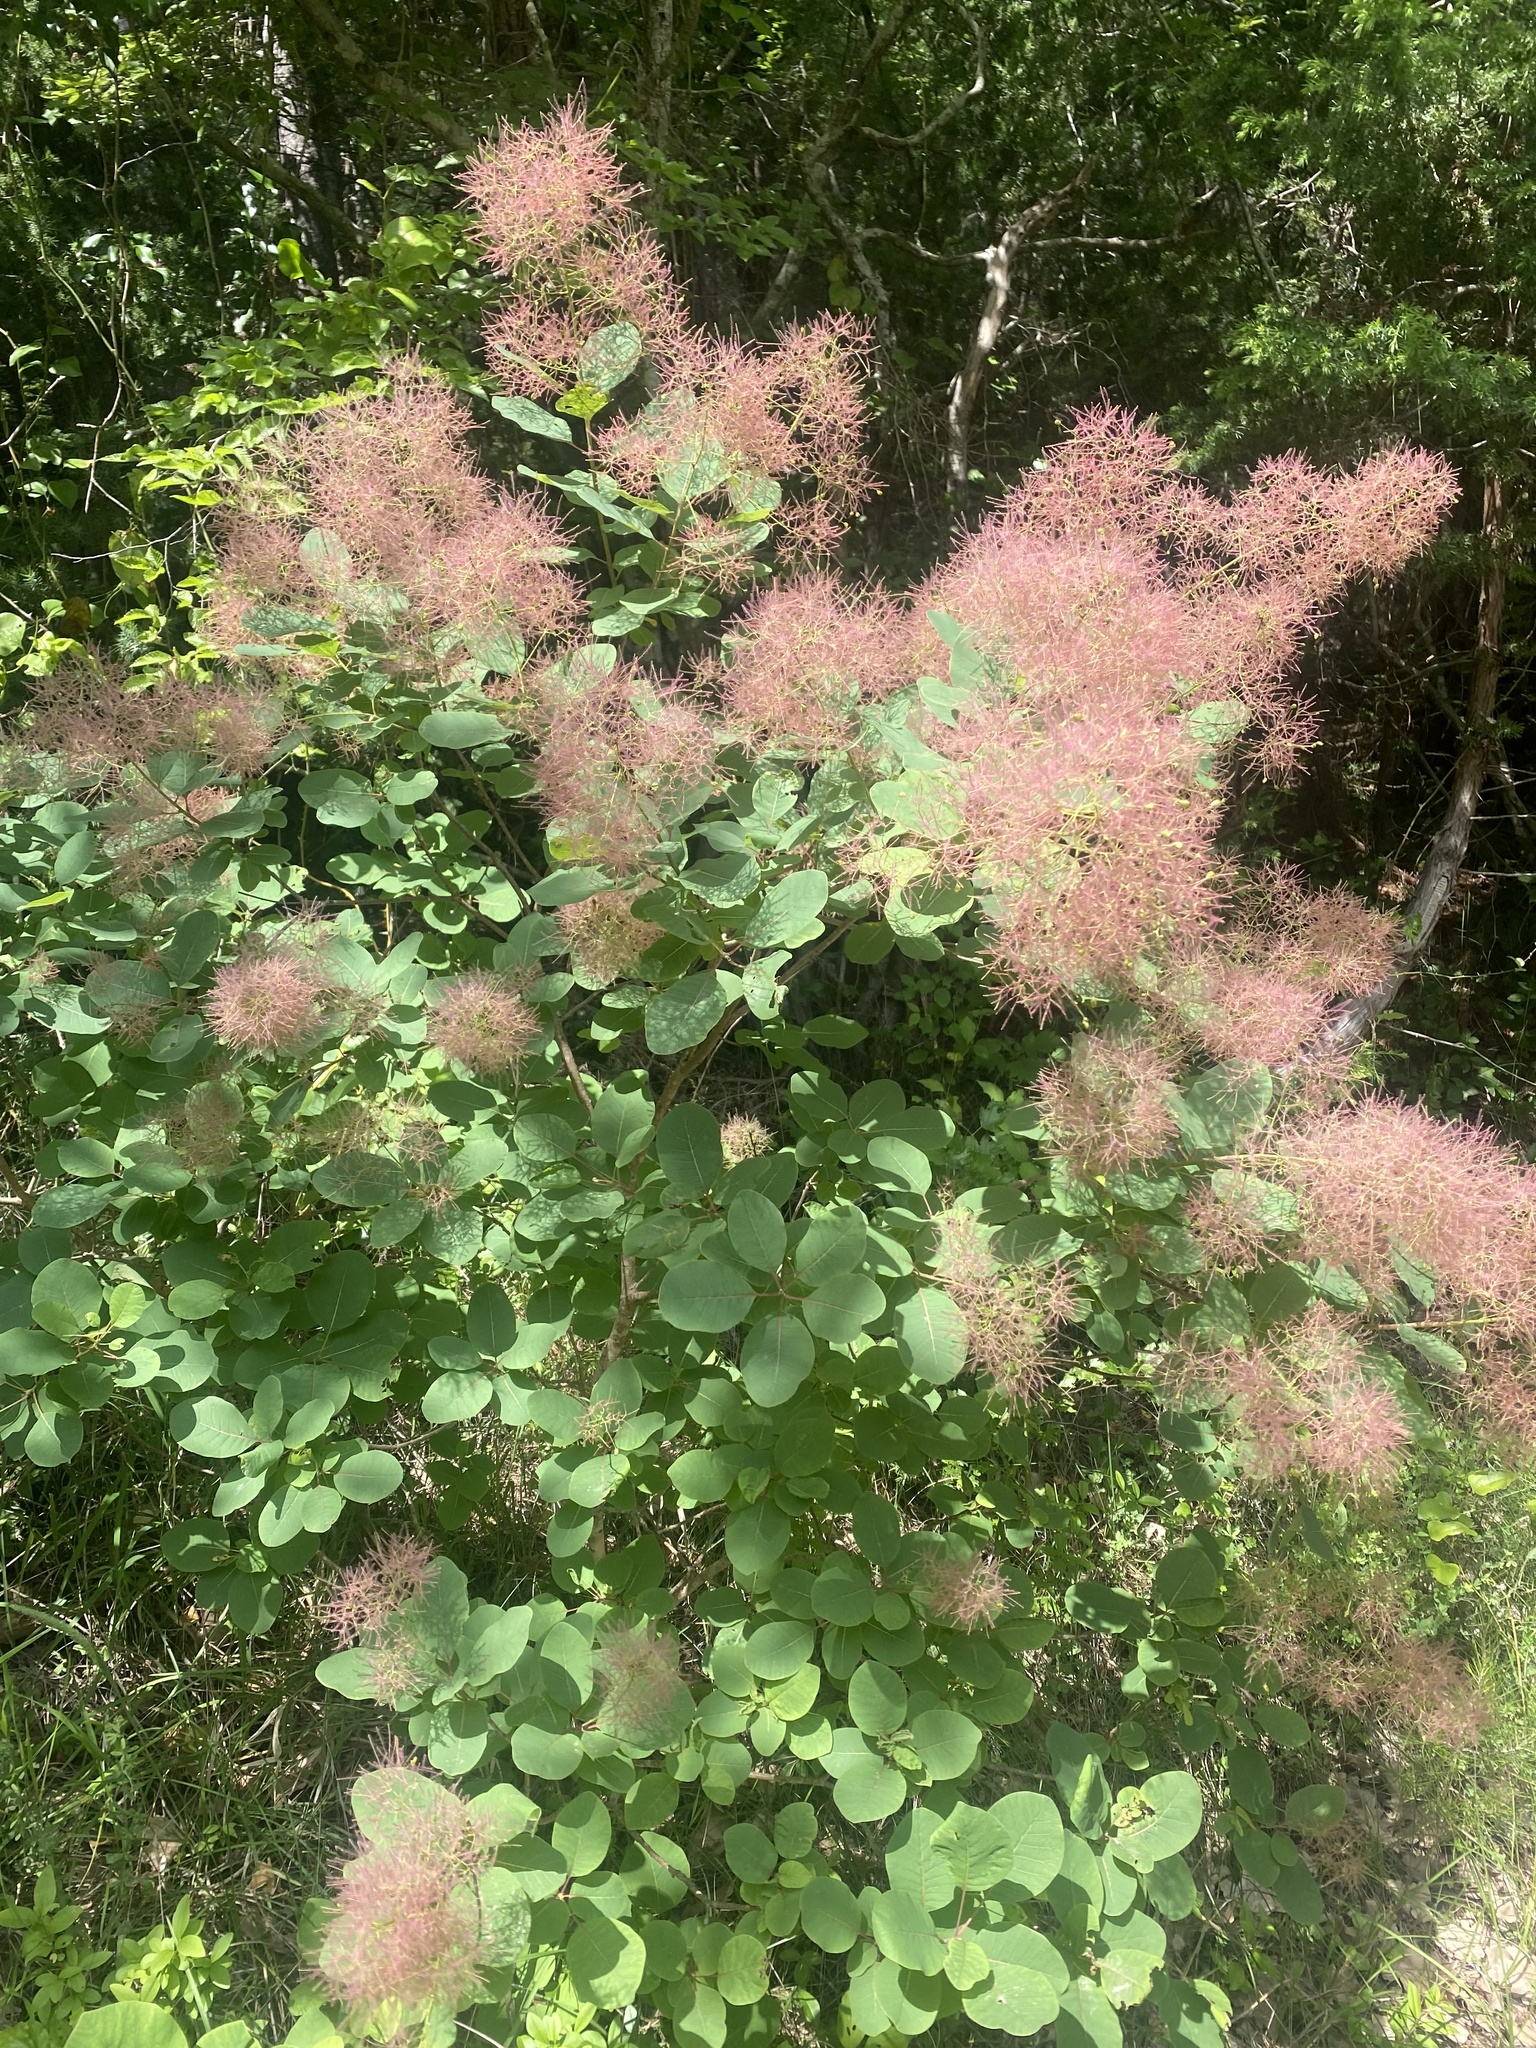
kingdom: Plantae
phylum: Tracheophyta
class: Magnoliopsida
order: Sapindales
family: Anacardiaceae
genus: Cotinus
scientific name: Cotinus coggygria
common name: Smoke-tree
